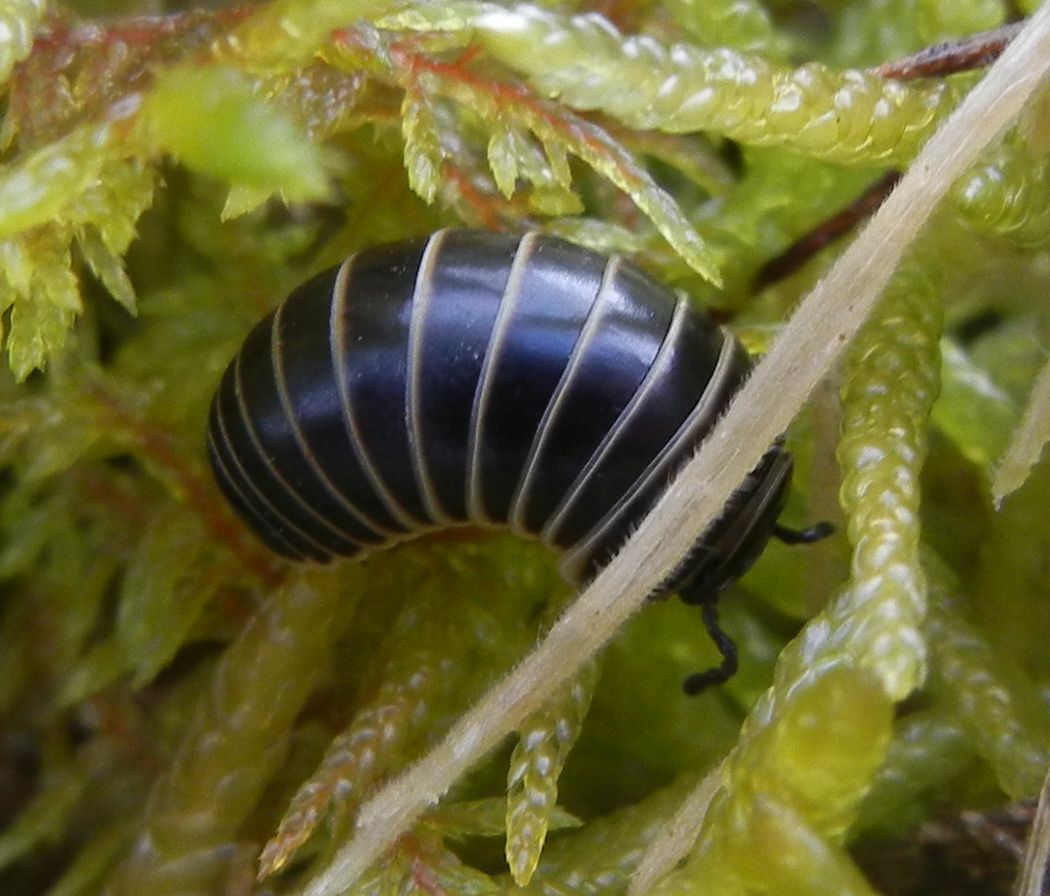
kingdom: Animalia
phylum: Arthropoda
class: Diplopoda
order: Glomerida
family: Glomeridae
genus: Glomeris
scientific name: Glomeris marginata
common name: Bordered pill millipede
